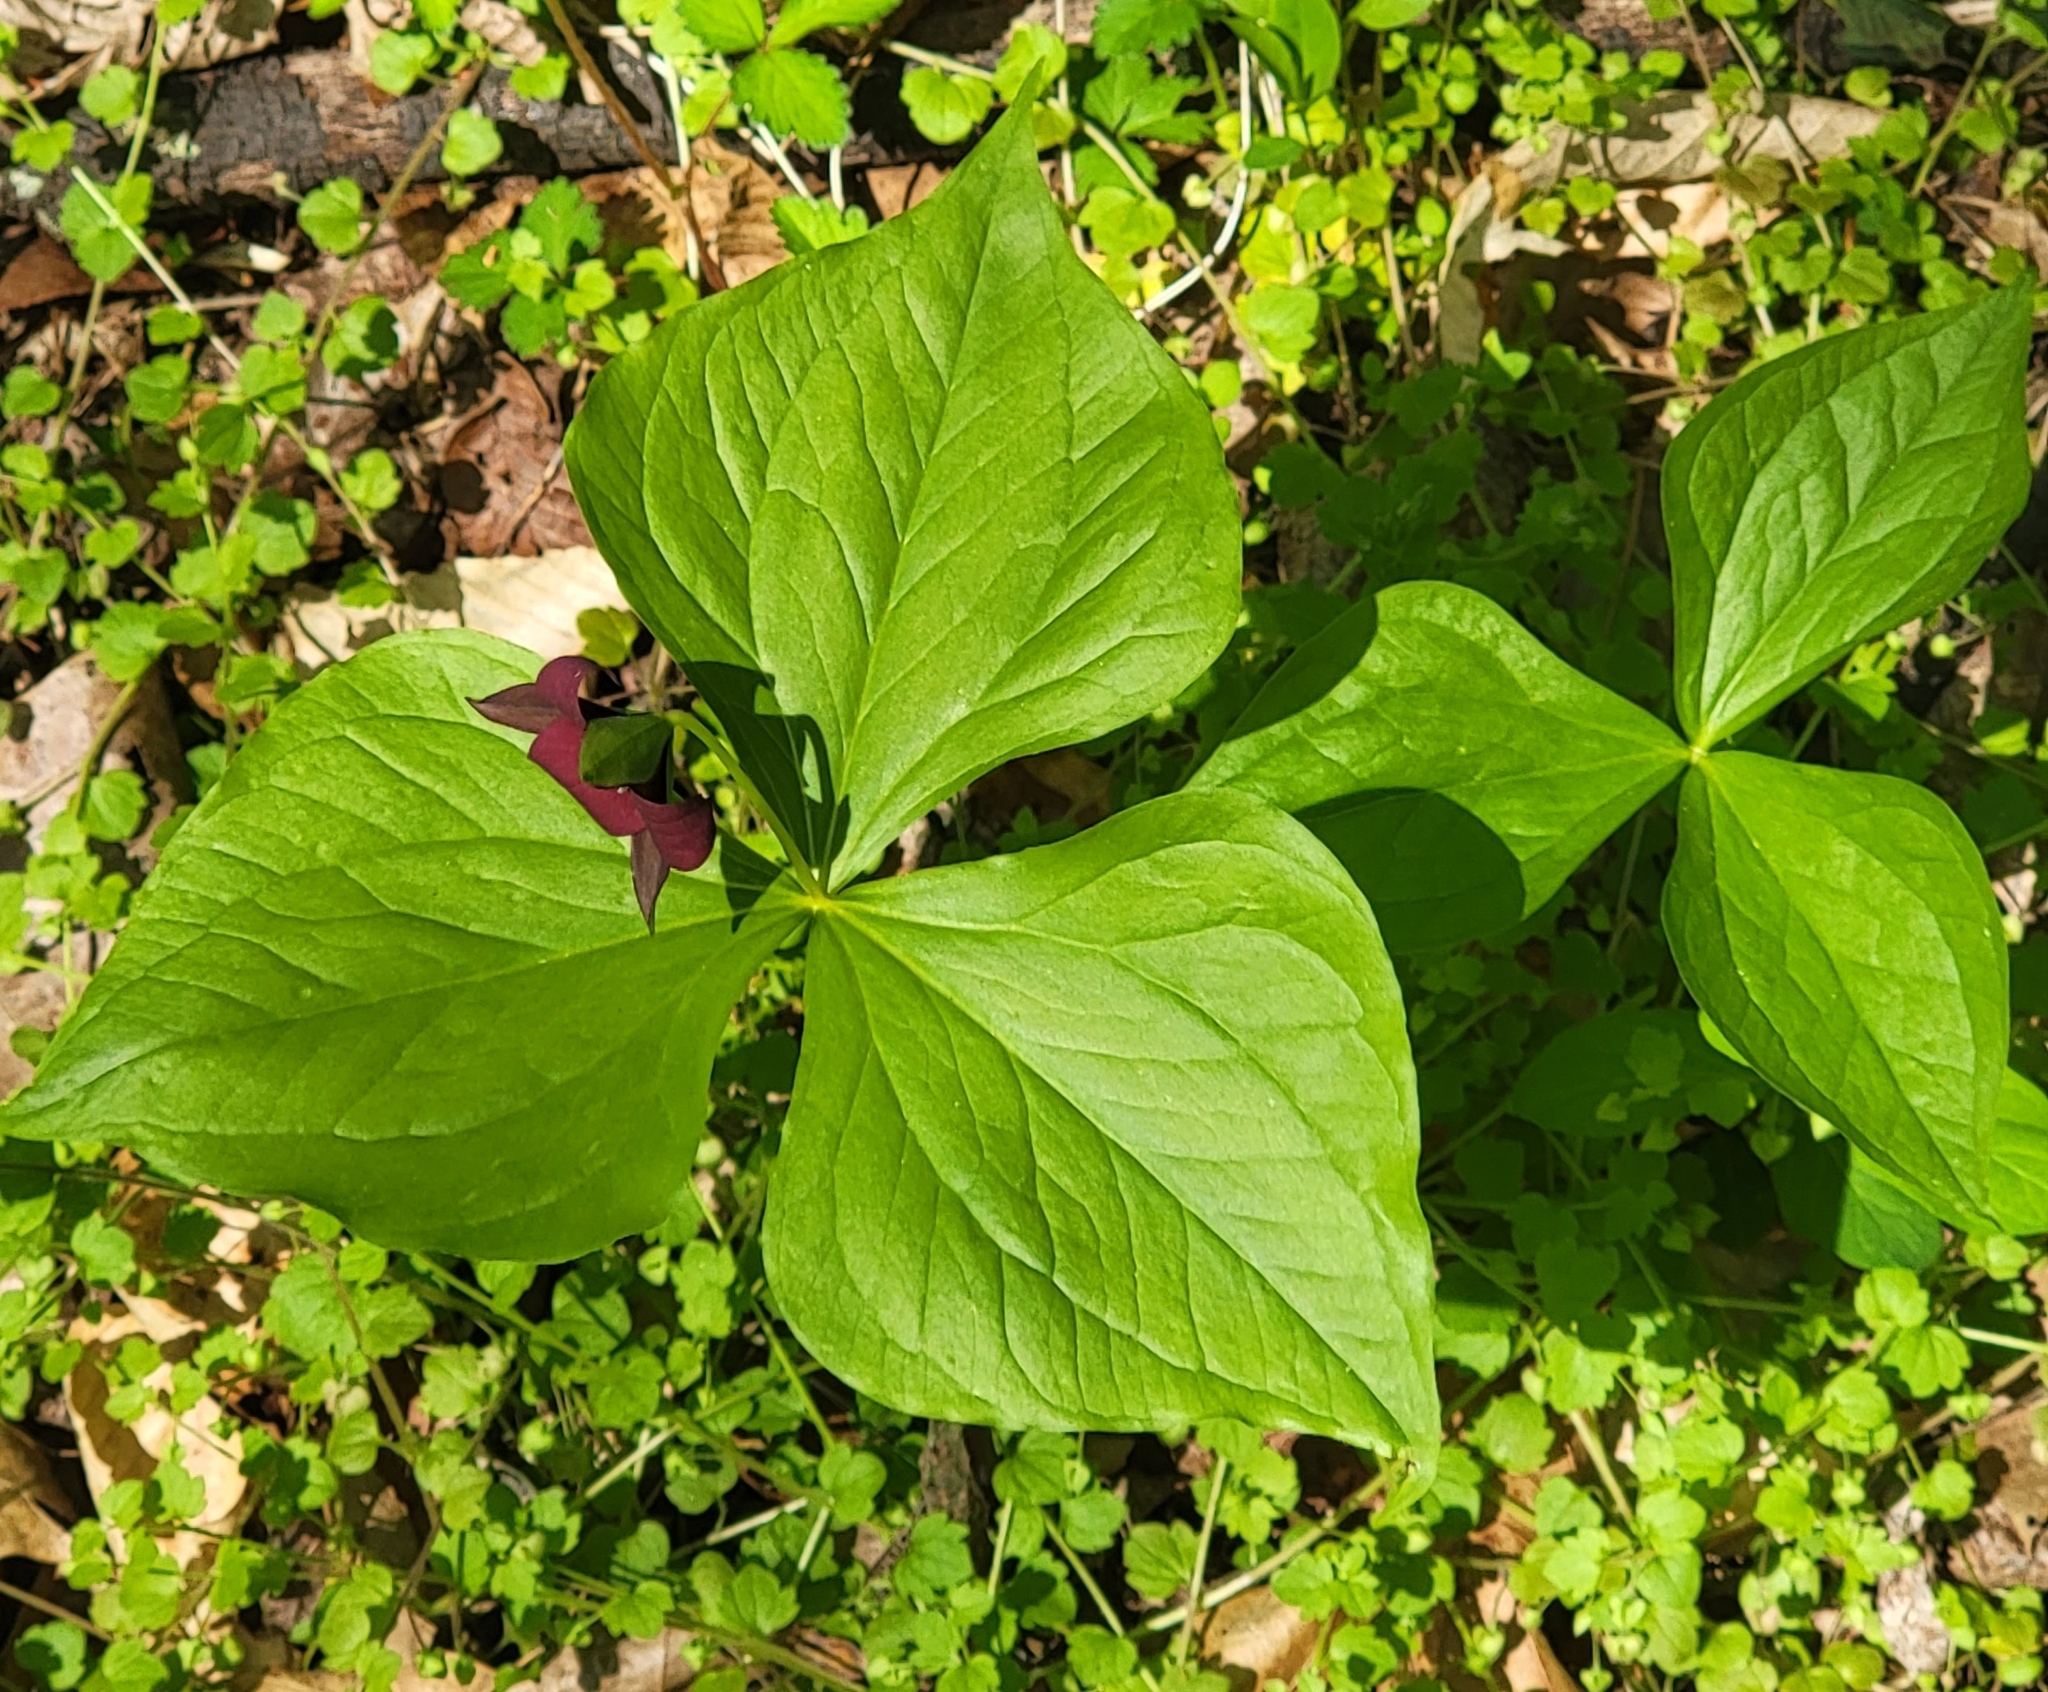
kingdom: Plantae
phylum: Tracheophyta
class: Liliopsida
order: Liliales
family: Melanthiaceae
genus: Trillium
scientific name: Trillium erectum
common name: Purple trillium
